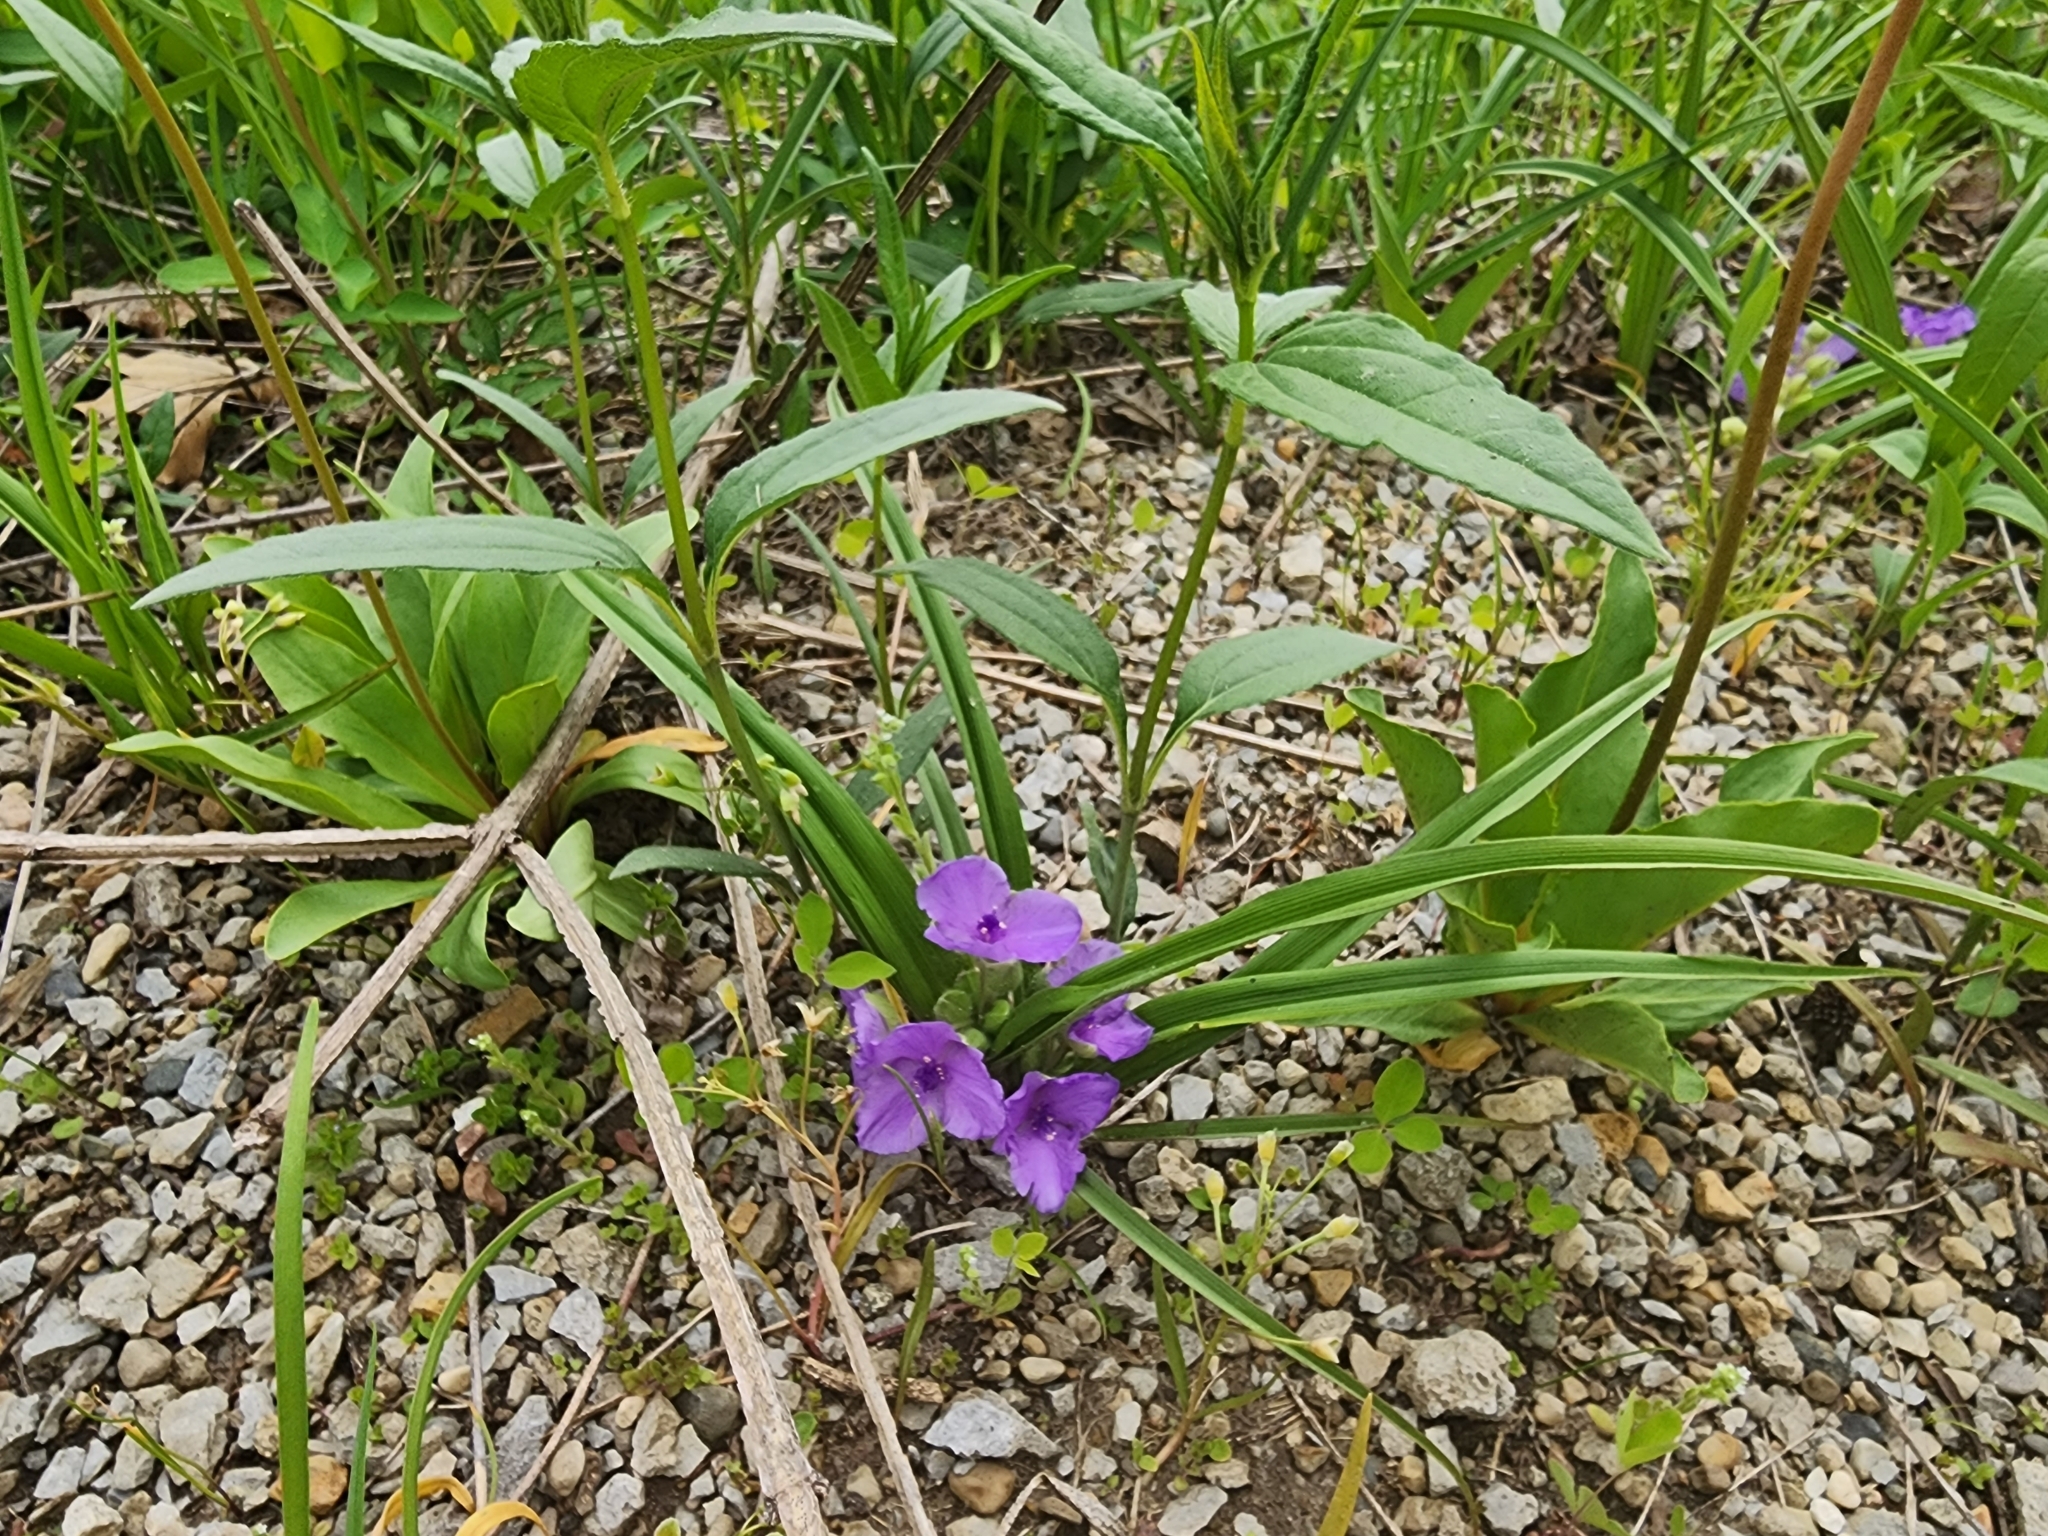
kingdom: Plantae
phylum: Tracheophyta
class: Liliopsida
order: Commelinales
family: Commelinaceae
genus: Tradescantia
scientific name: Tradescantia virginiana
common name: Spiderwort
